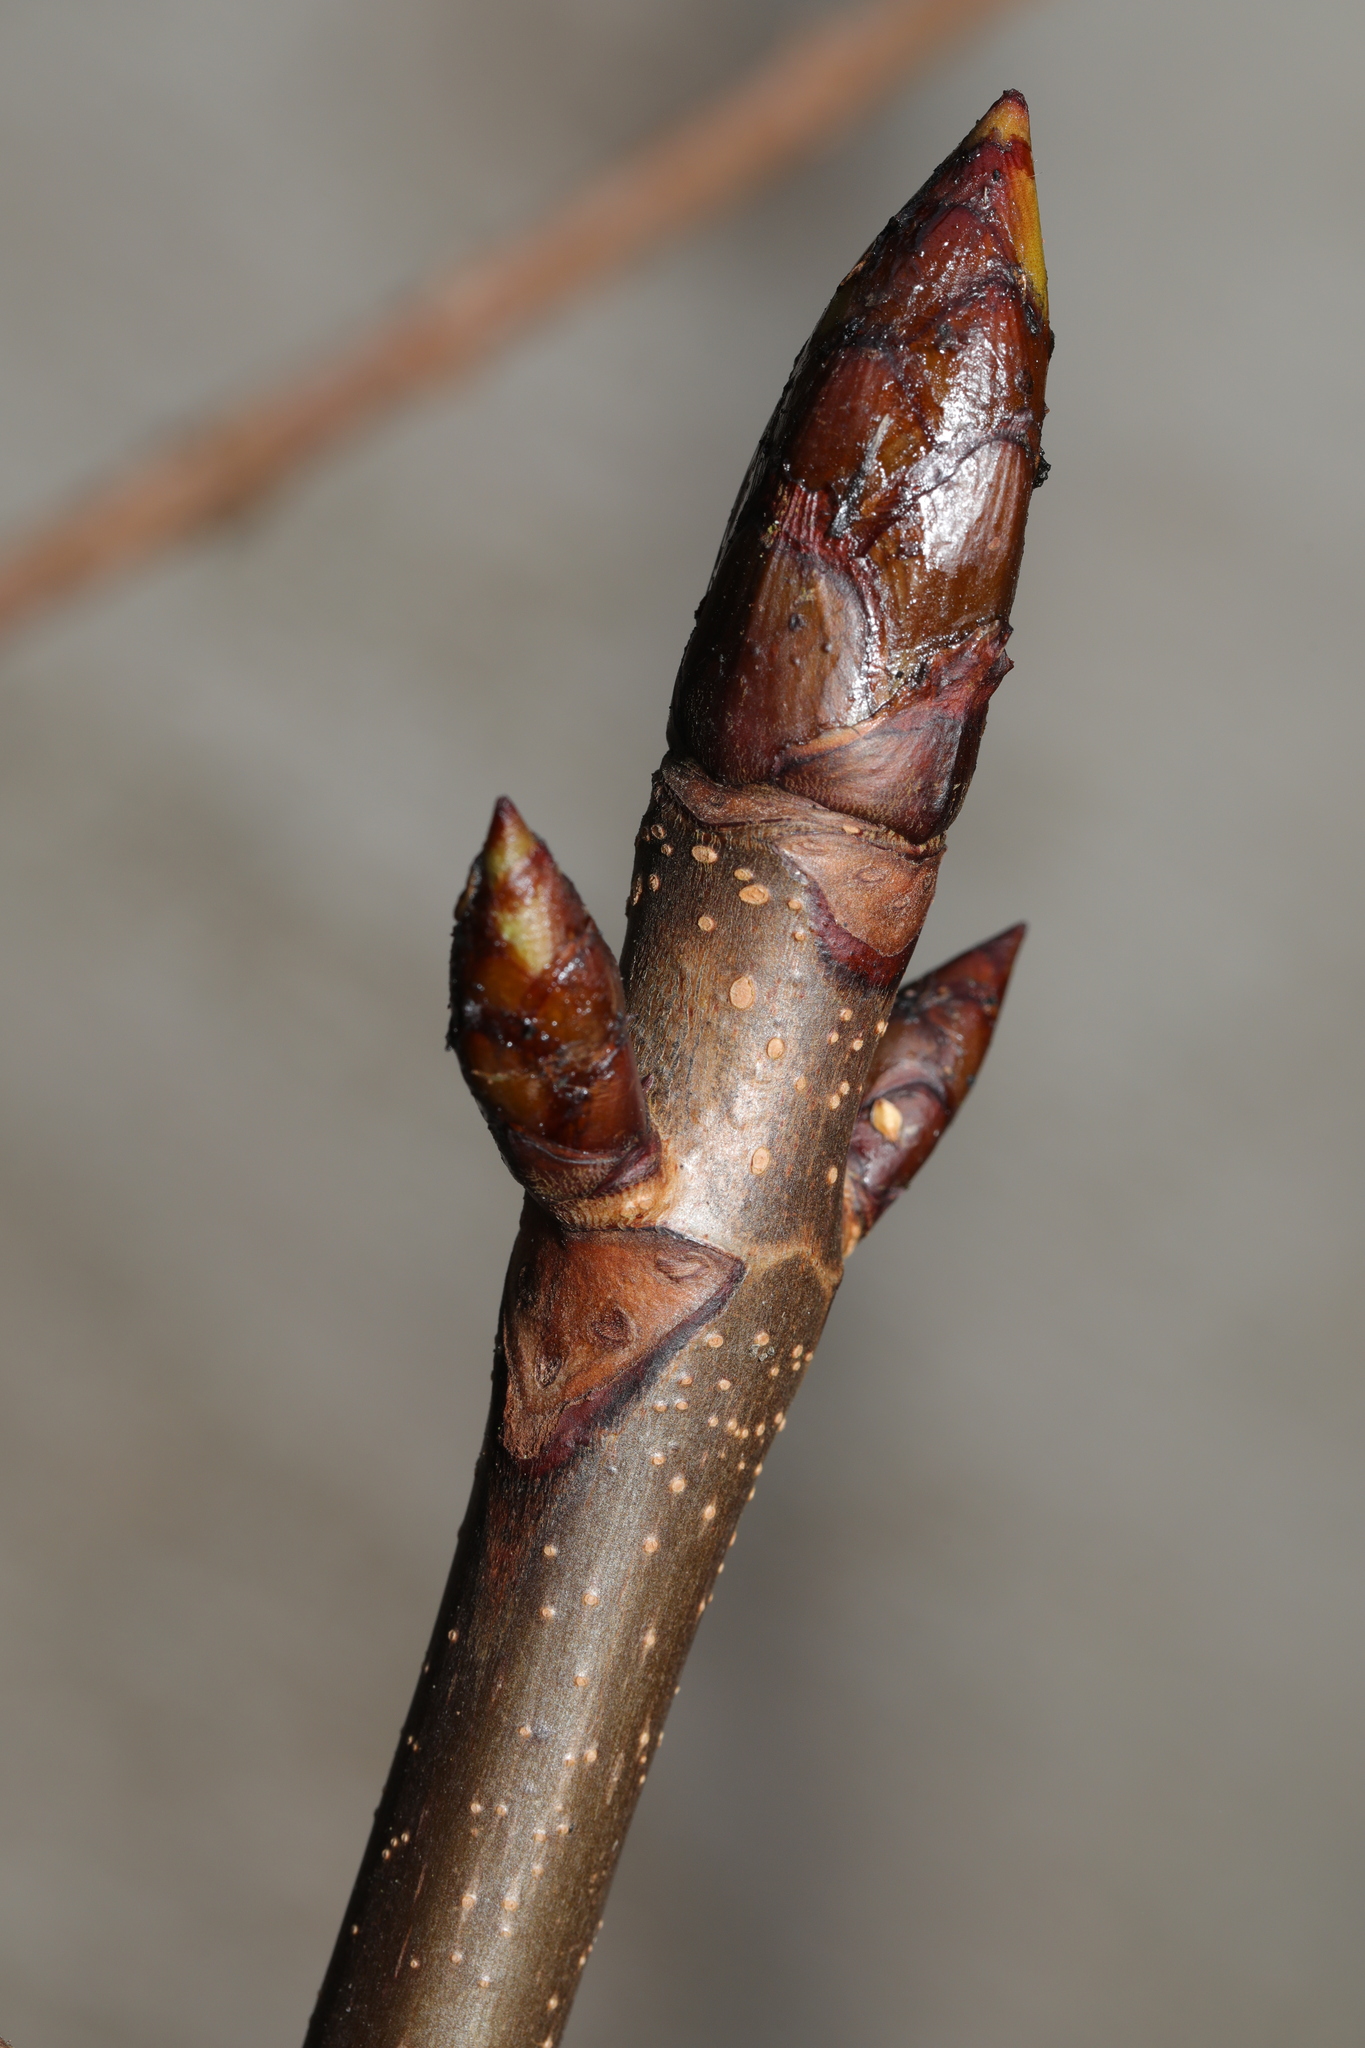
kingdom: Plantae
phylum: Tracheophyta
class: Magnoliopsida
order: Sapindales
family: Sapindaceae
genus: Aesculus
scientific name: Aesculus hippocastanum
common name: Horse-chestnut
